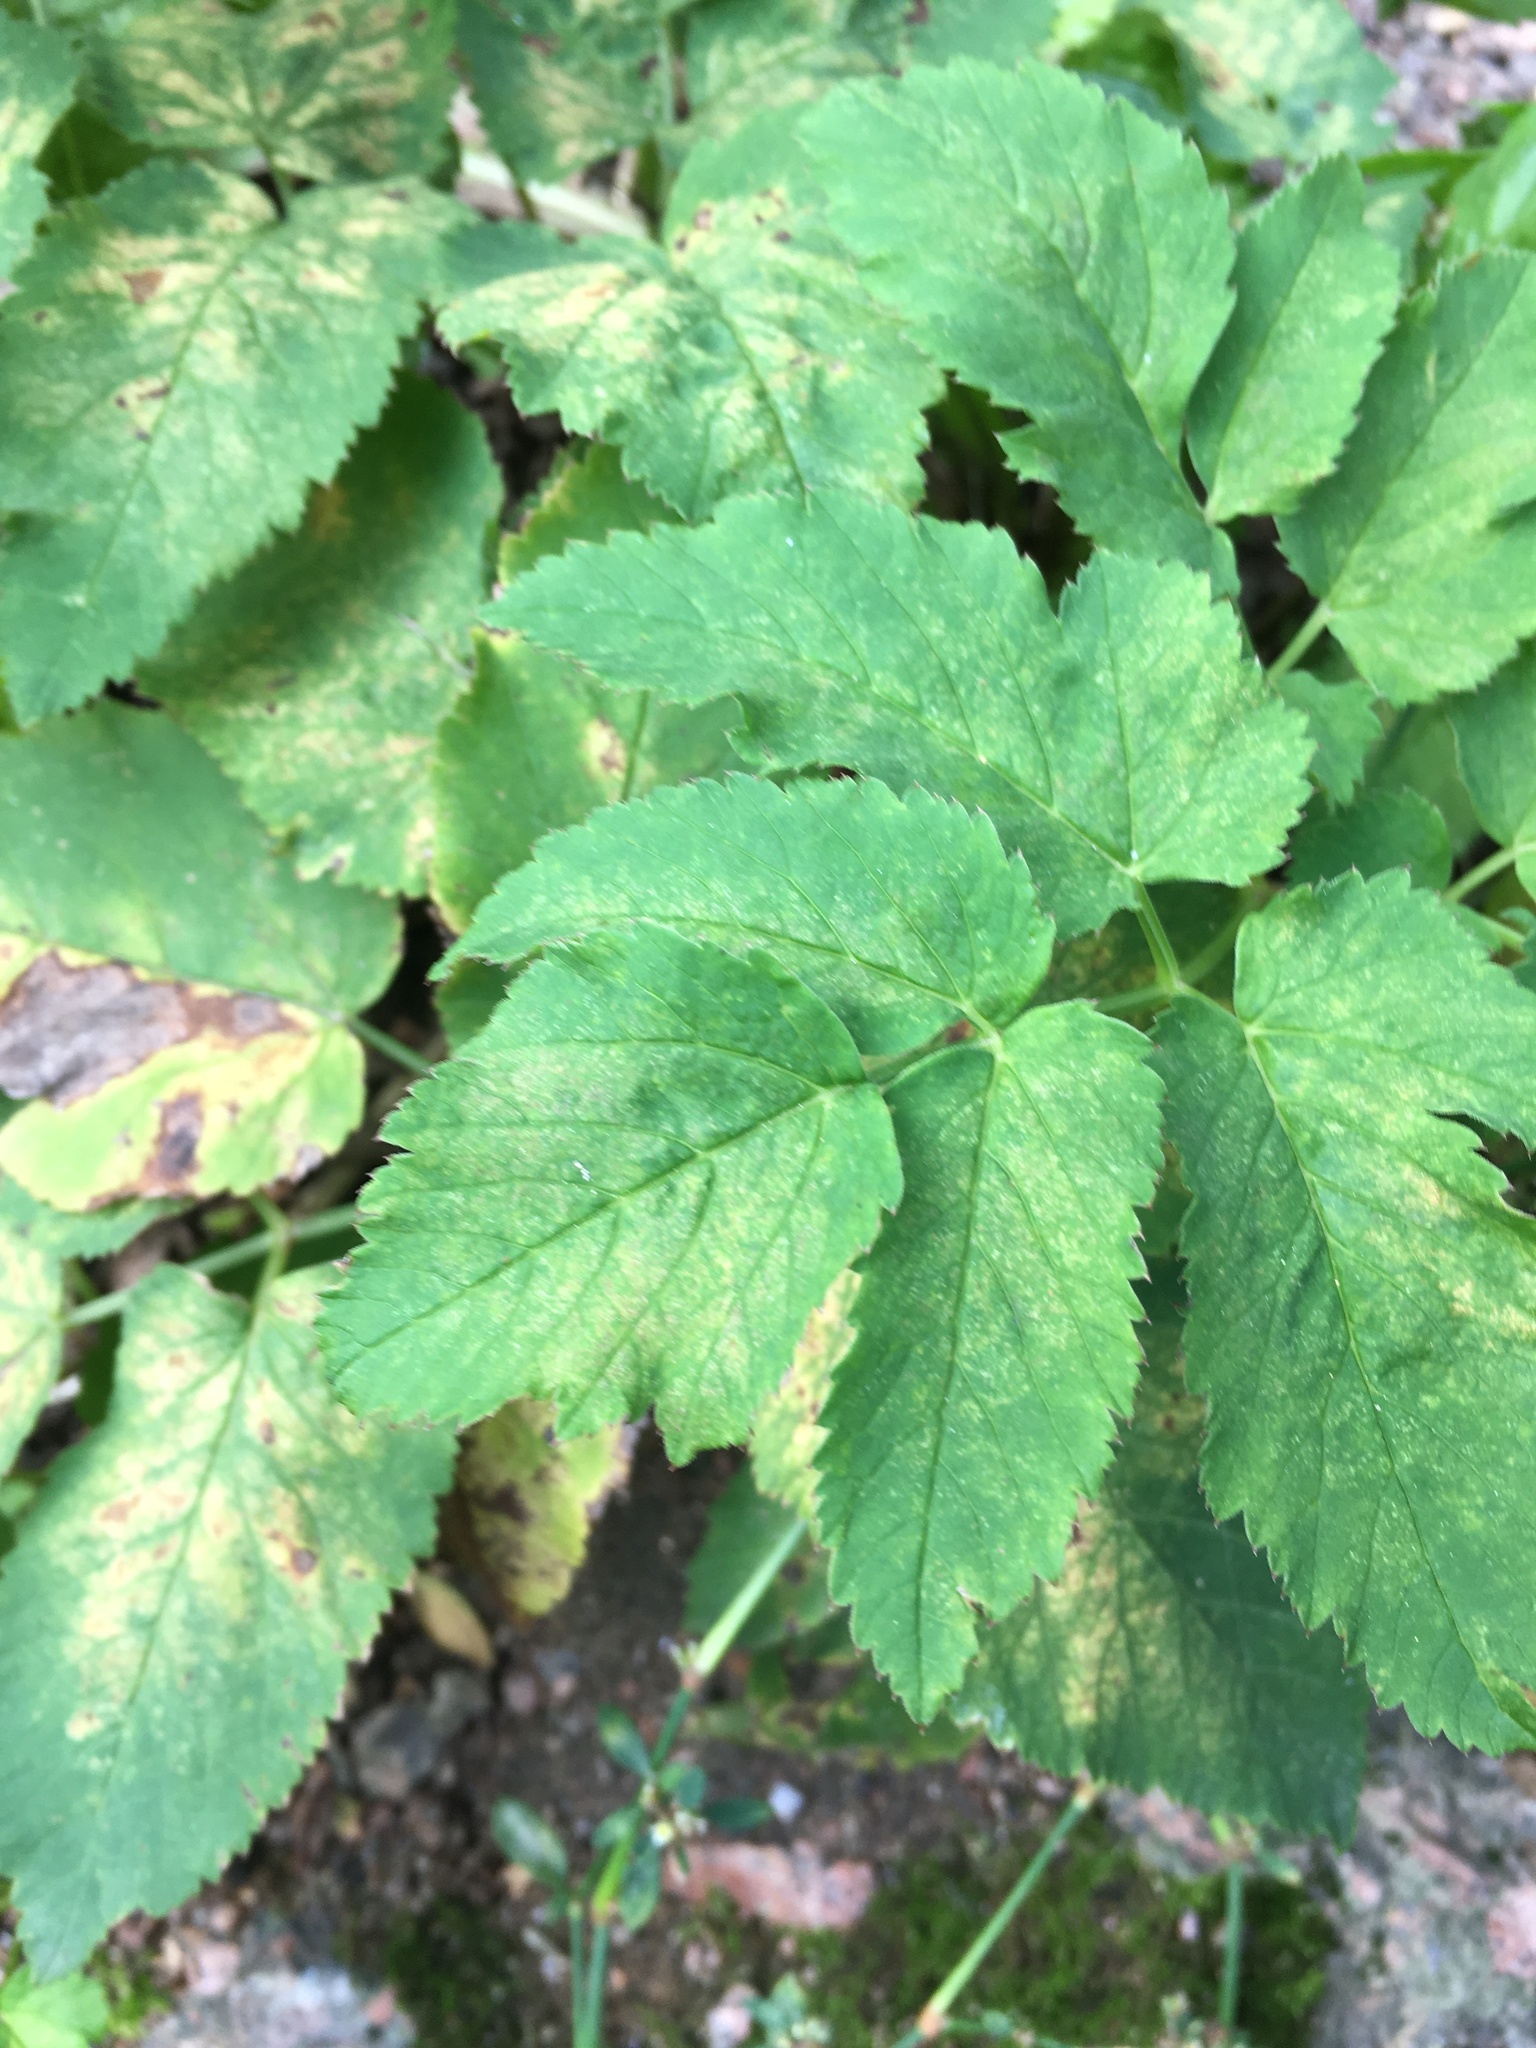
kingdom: Plantae
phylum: Tracheophyta
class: Magnoliopsida
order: Apiales
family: Apiaceae
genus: Aegopodium
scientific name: Aegopodium podagraria
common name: Ground-elder
